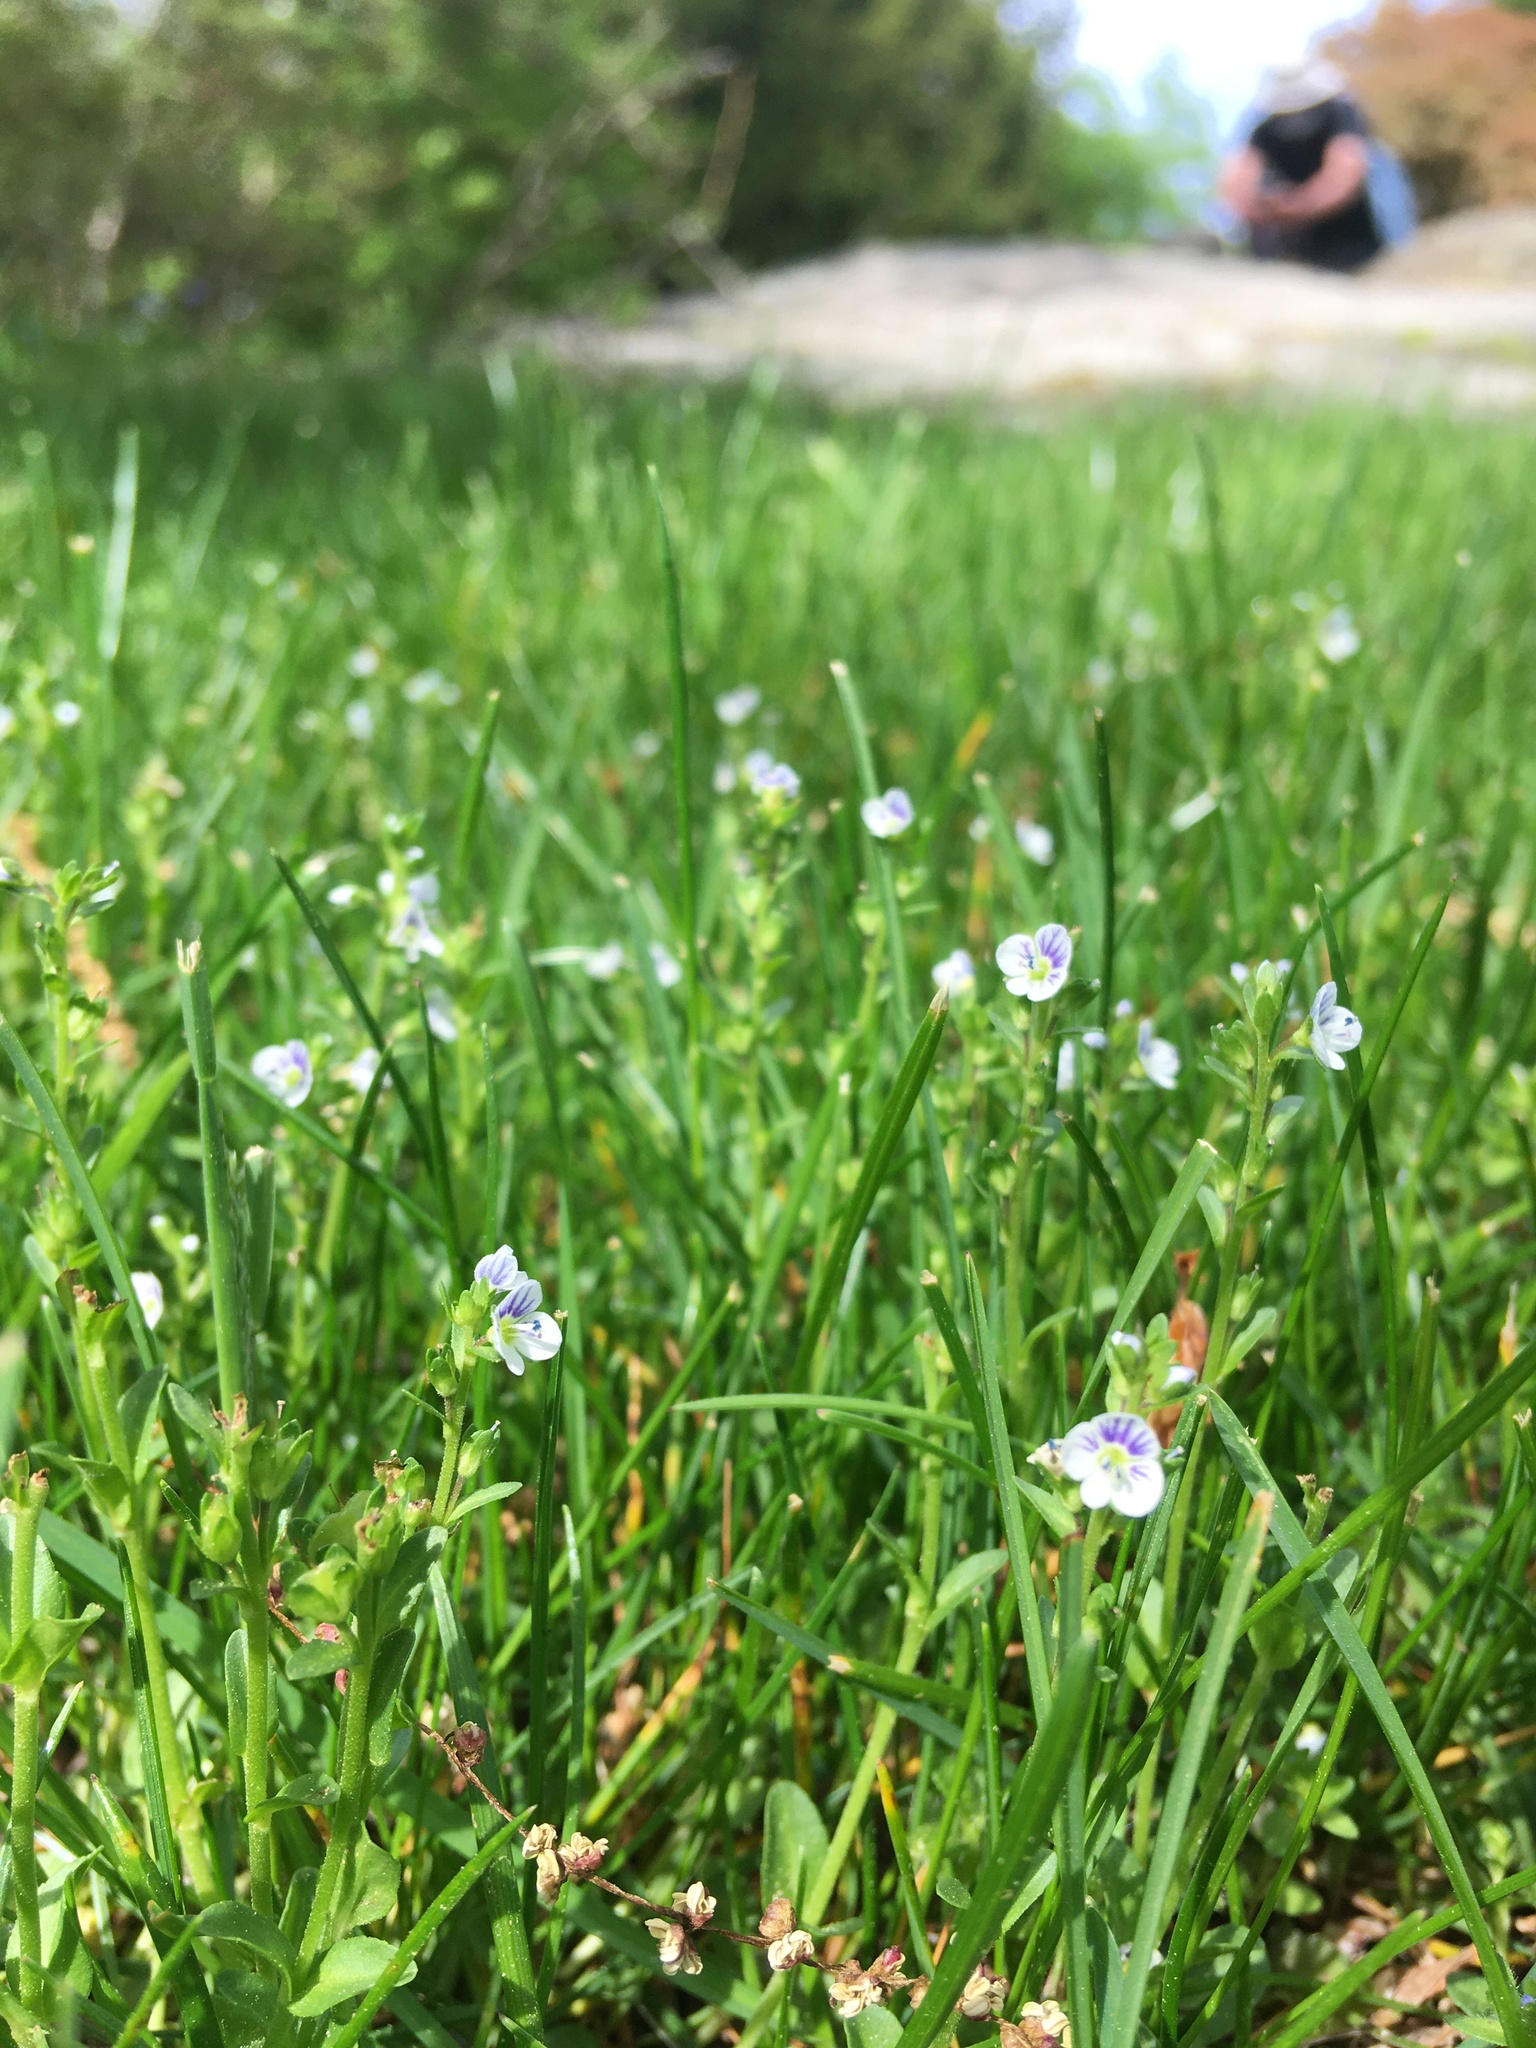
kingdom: Plantae
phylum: Tracheophyta
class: Magnoliopsida
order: Lamiales
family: Plantaginaceae
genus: Veronica
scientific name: Veronica serpyllifolia
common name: Thyme-leaved speedwell
